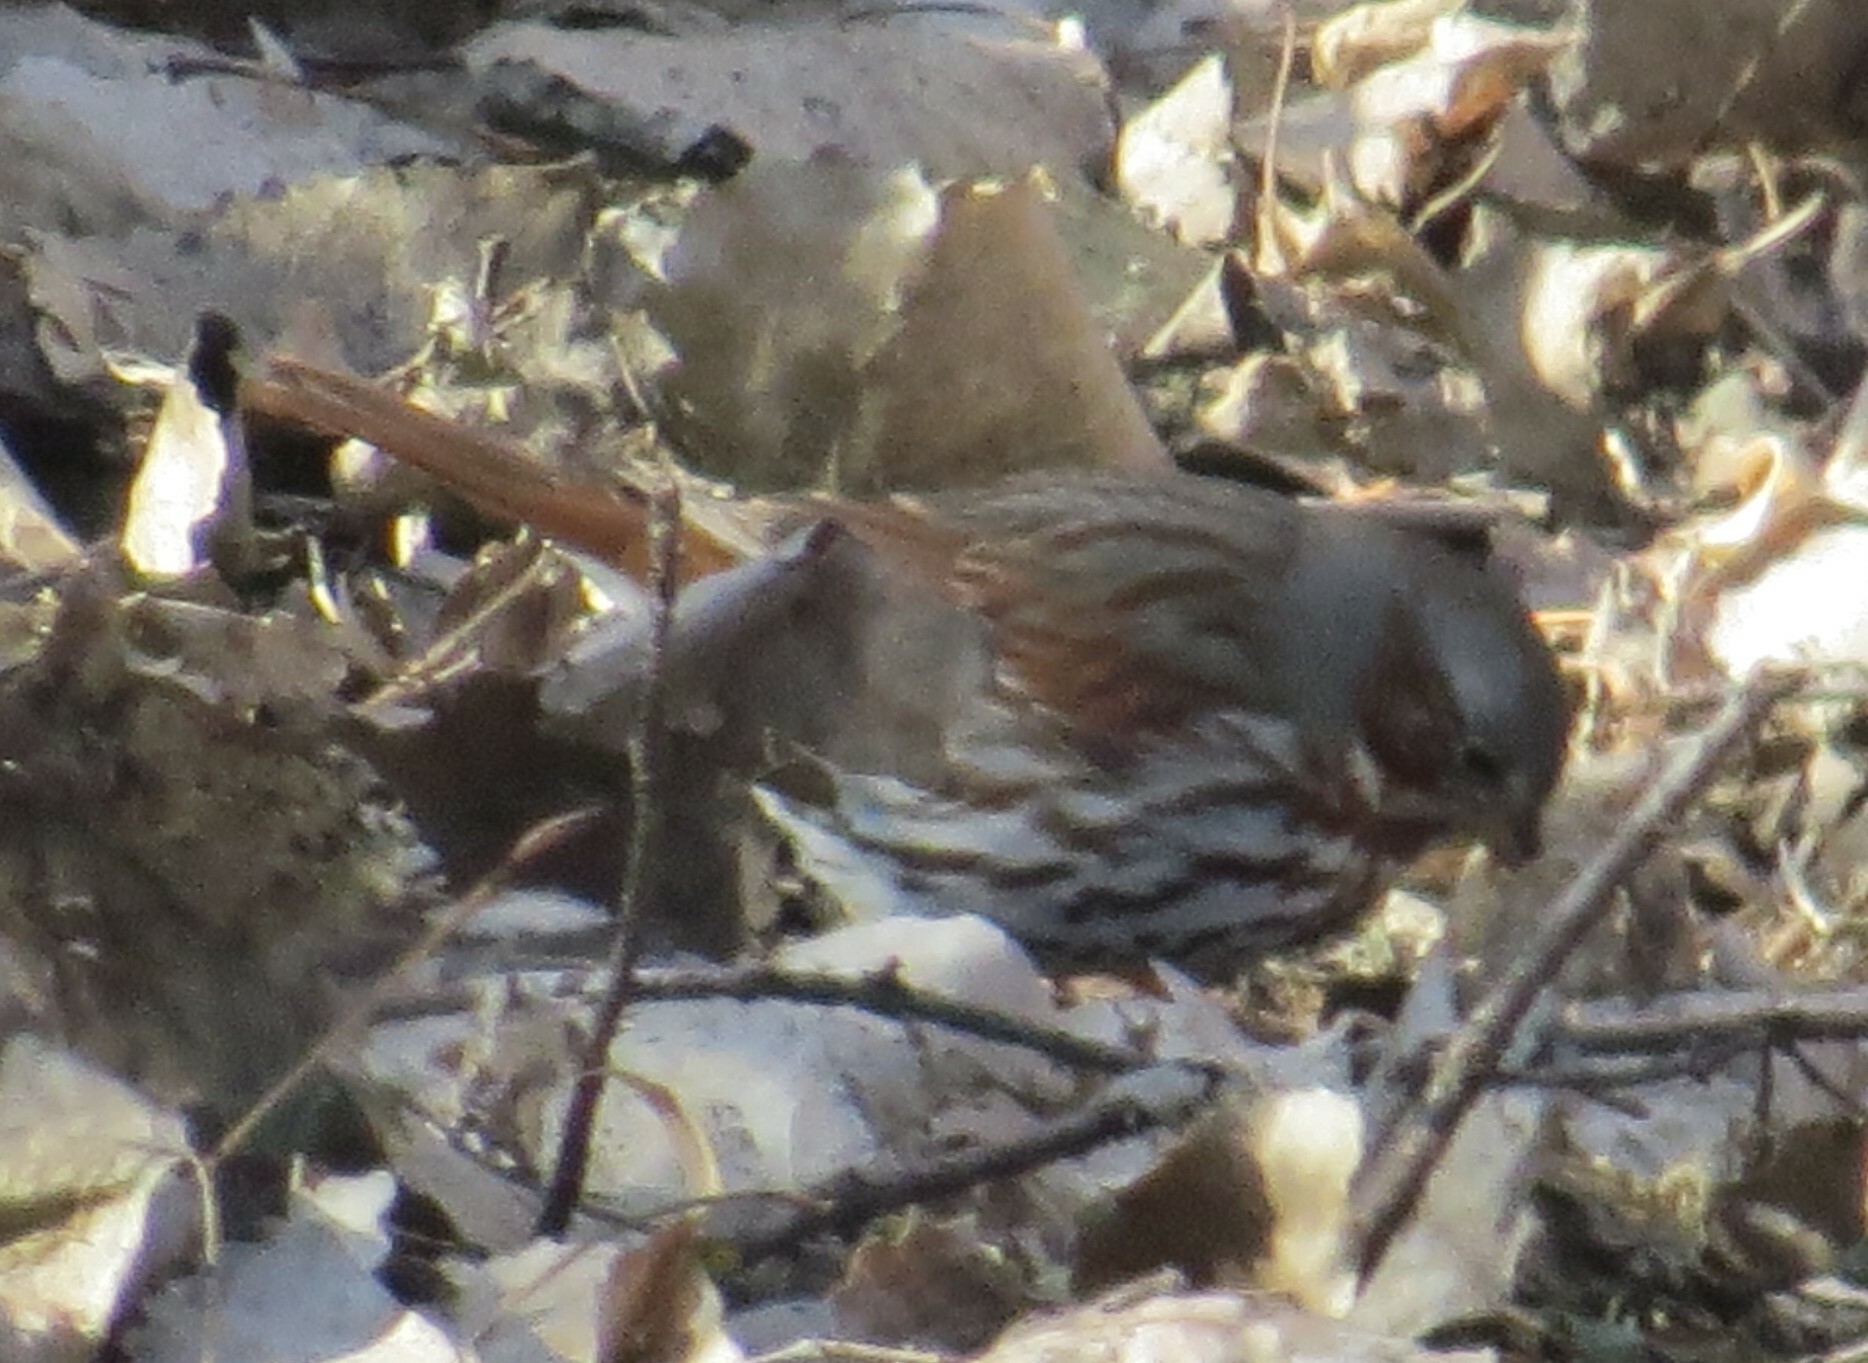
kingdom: Animalia
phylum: Chordata
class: Aves
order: Passeriformes
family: Passerellidae
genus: Passerella
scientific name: Passerella iliaca
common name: Fox sparrow
